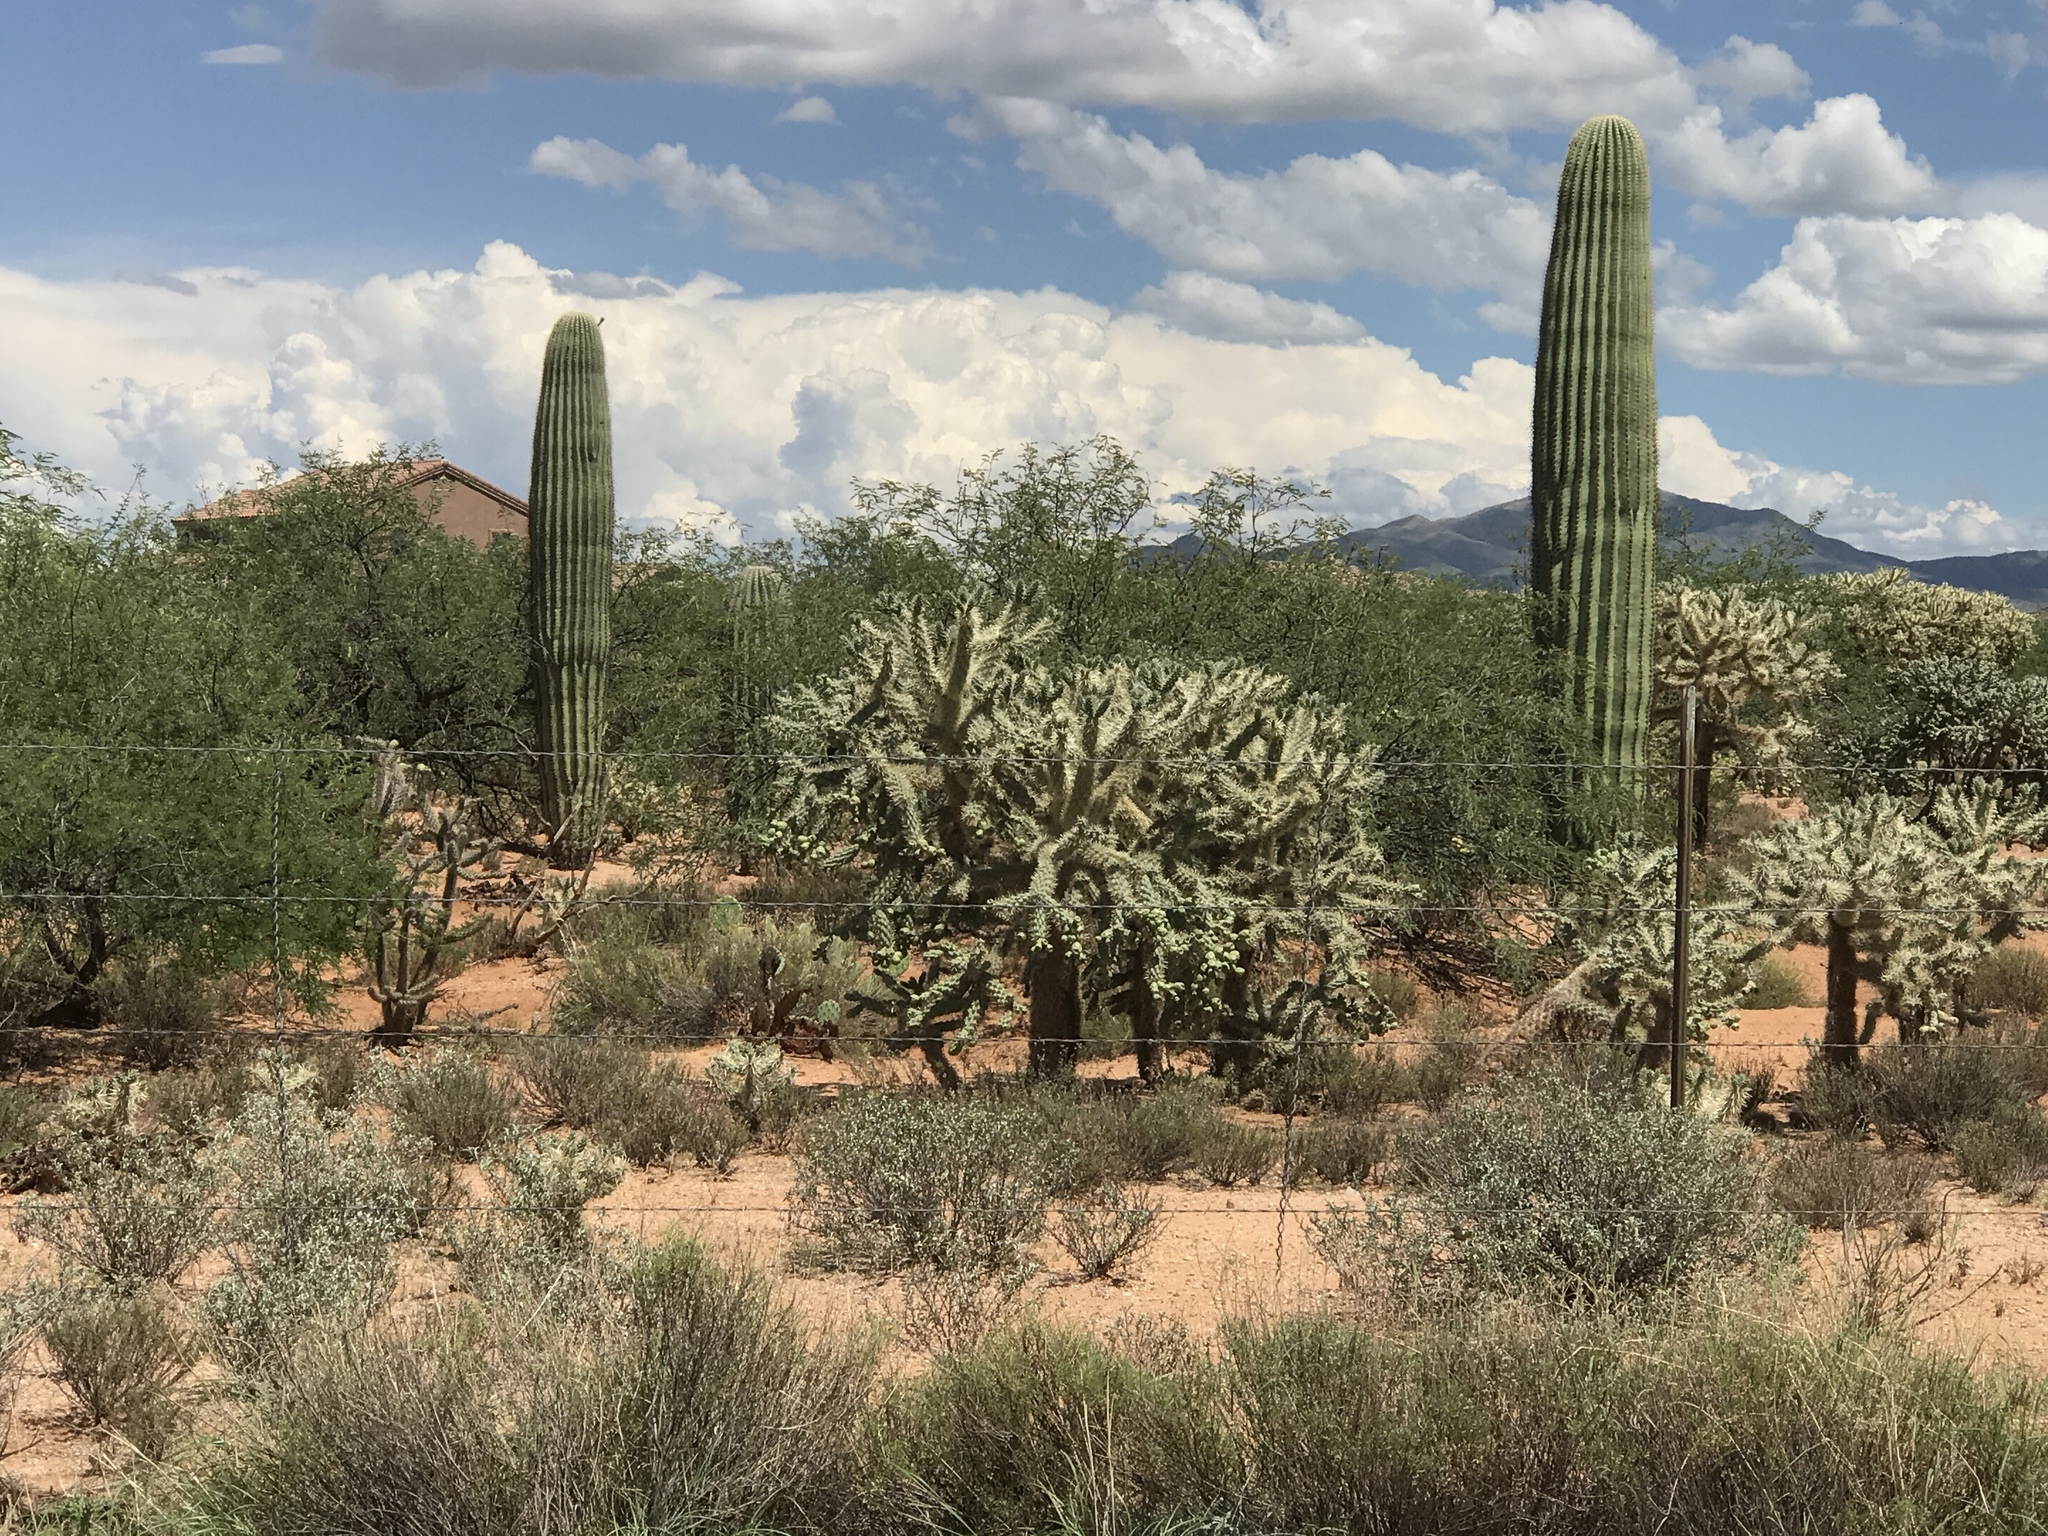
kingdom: Plantae
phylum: Tracheophyta
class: Magnoliopsida
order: Caryophyllales
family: Cactaceae
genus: Carnegiea
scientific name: Carnegiea gigantea
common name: Saguaro
